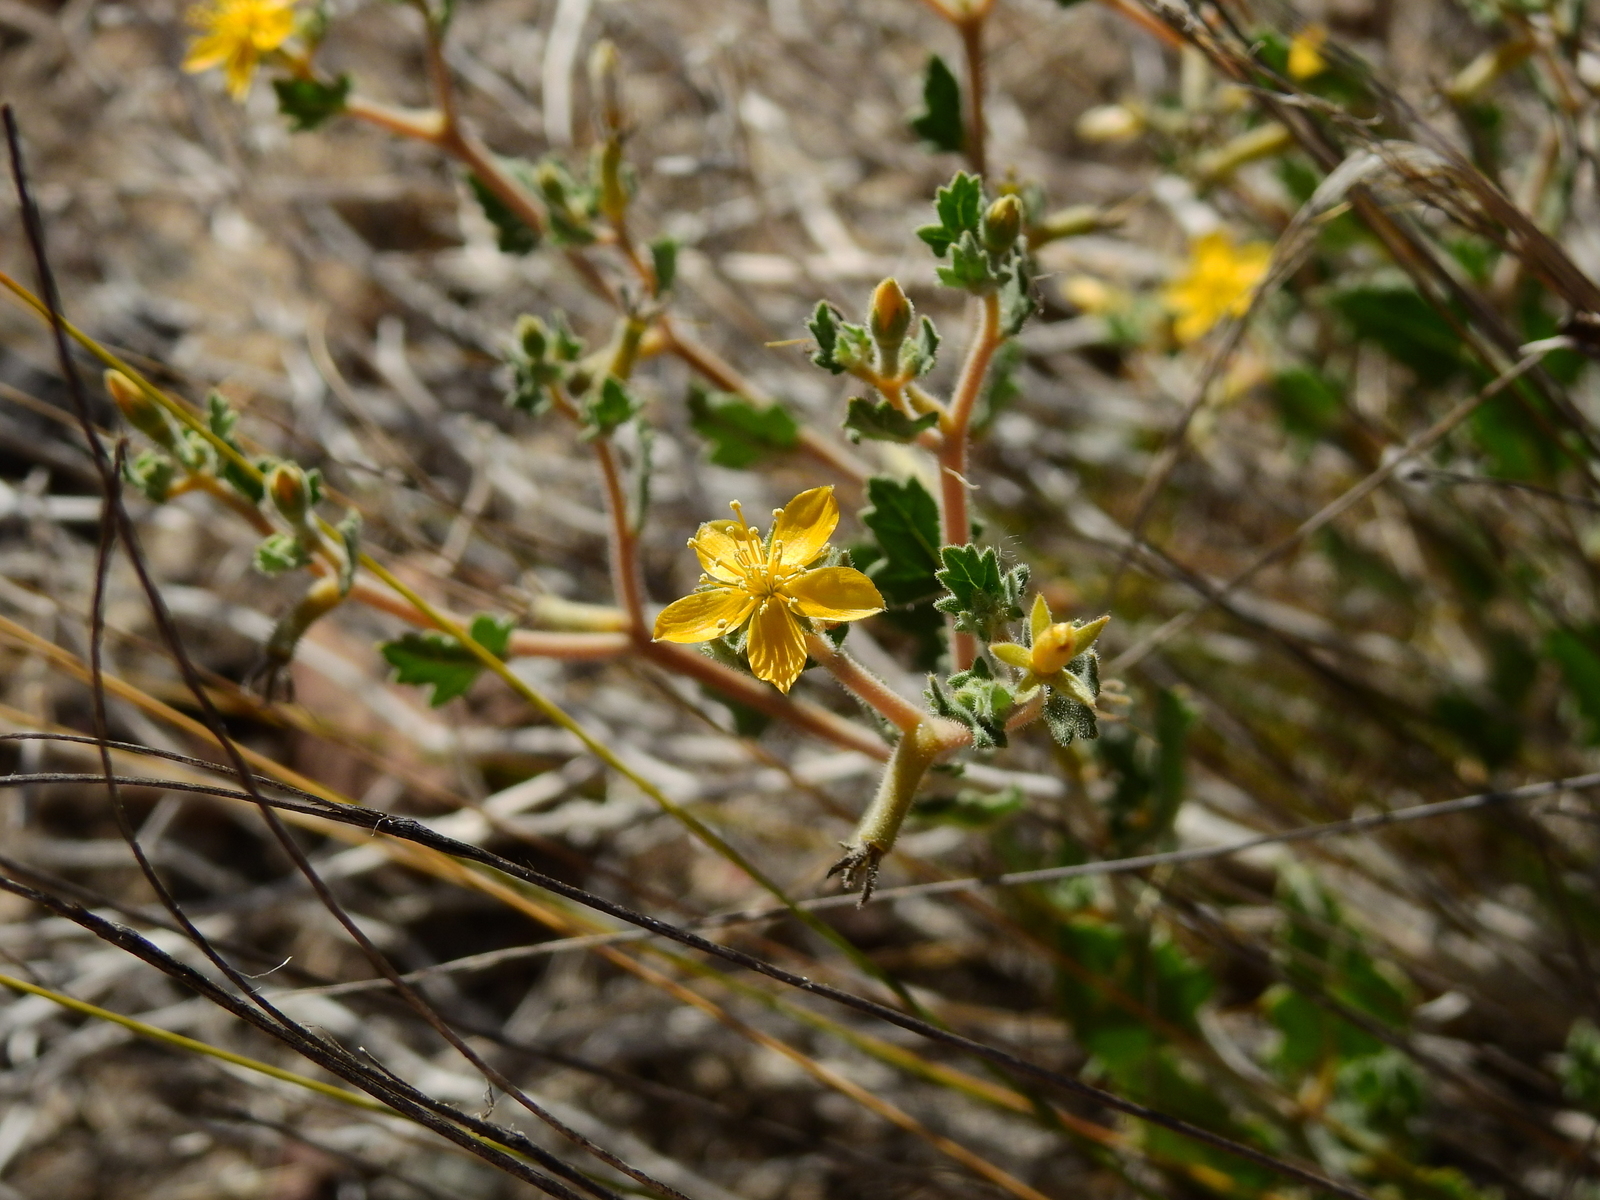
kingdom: Plantae
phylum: Tracheophyta
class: Magnoliopsida
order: Cornales
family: Loasaceae
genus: Mentzelia
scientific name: Mentzelia parvifolia
